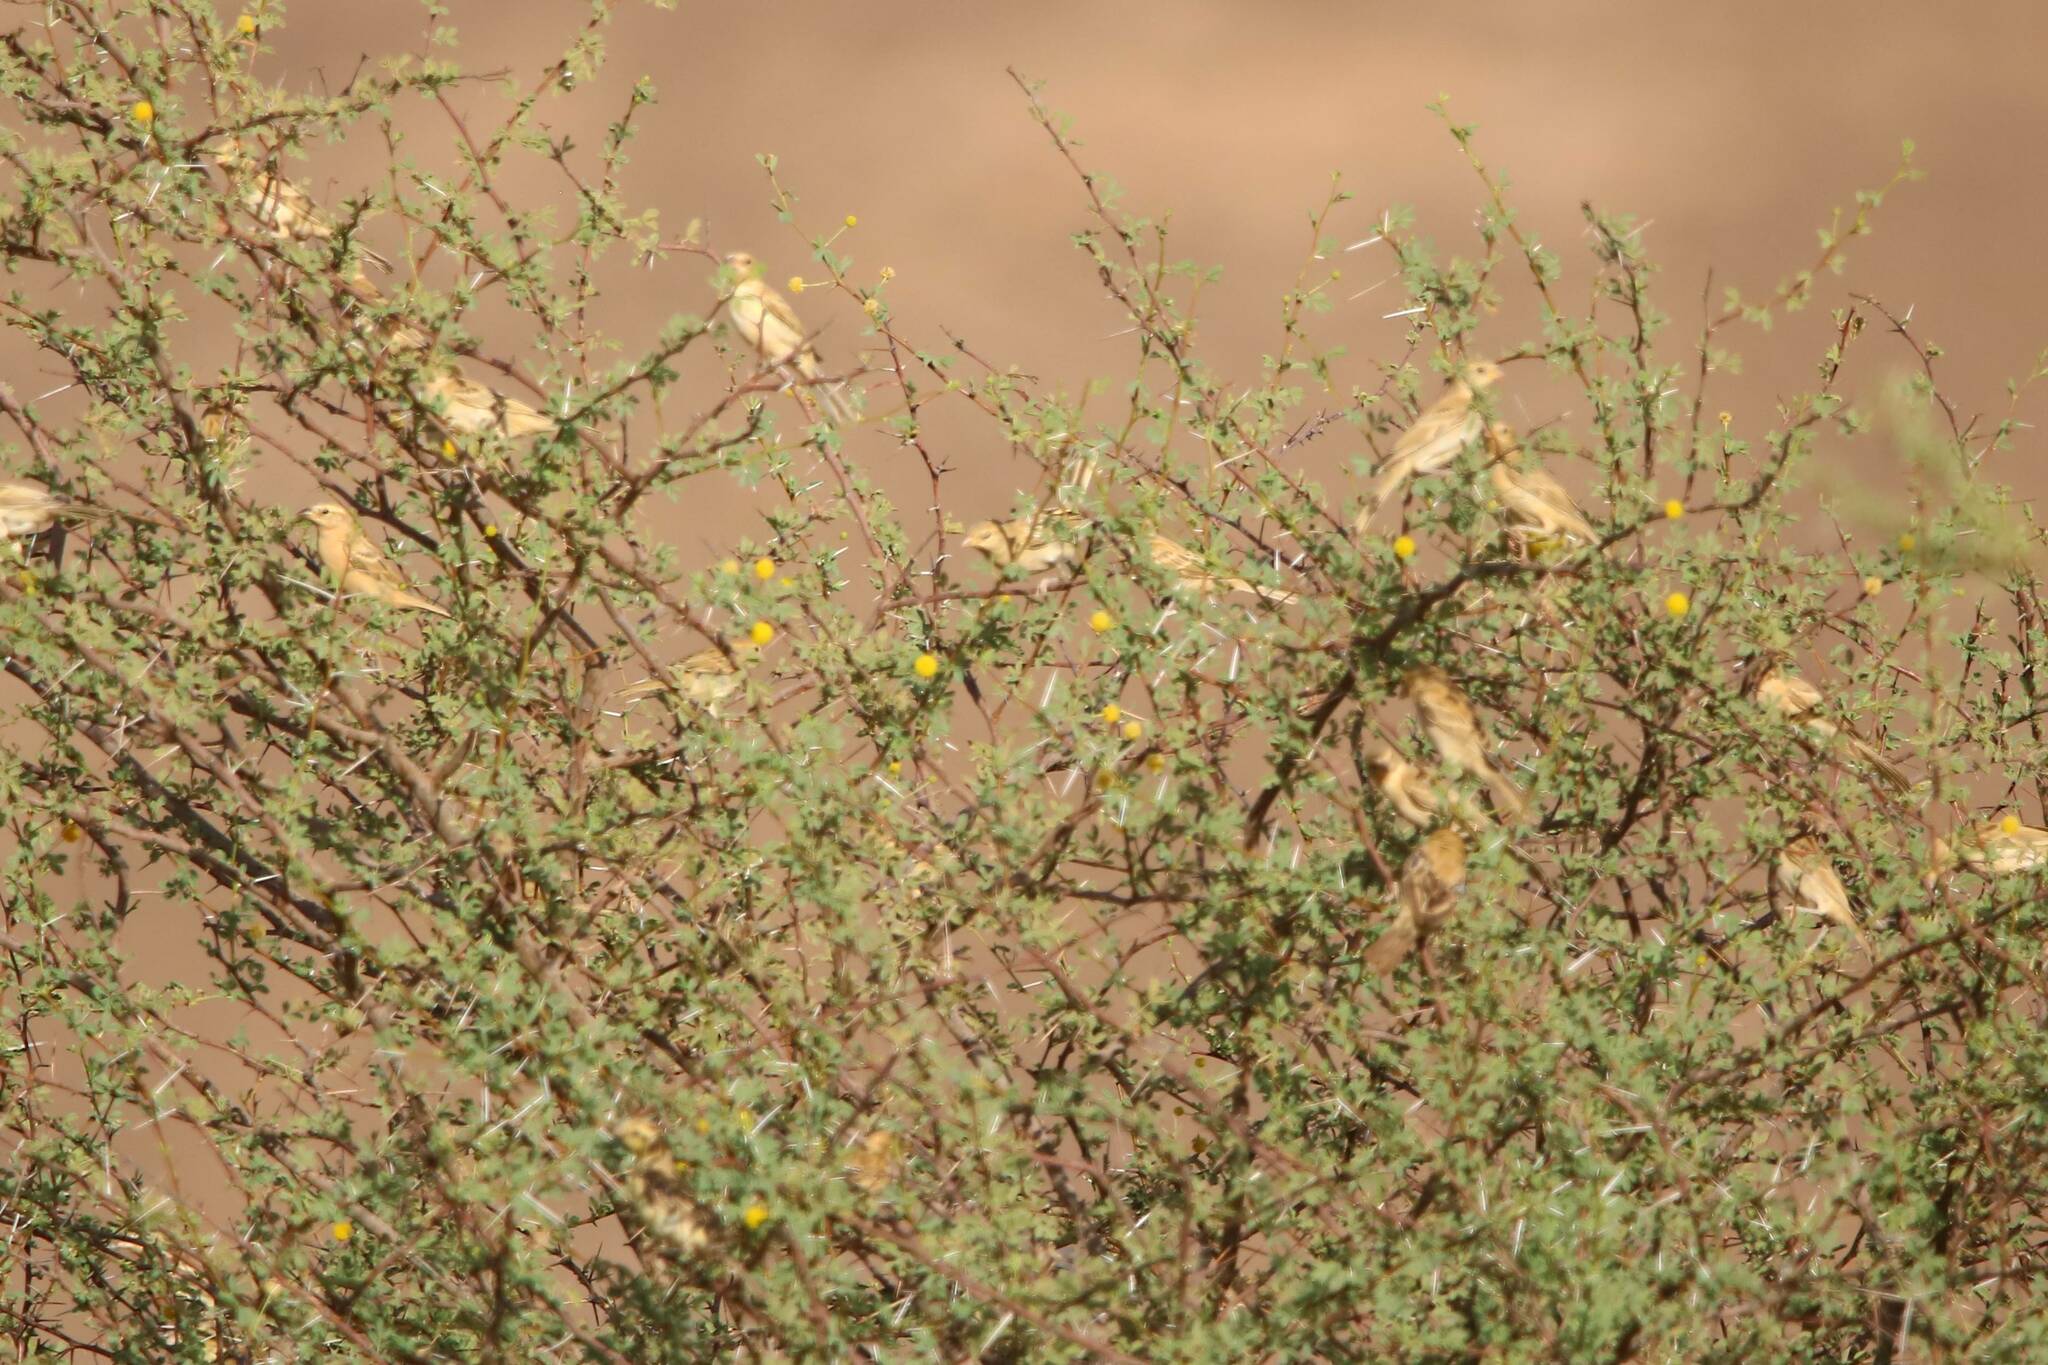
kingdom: Animalia
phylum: Chordata
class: Aves
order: Passeriformes
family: Passeridae
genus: Passer
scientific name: Passer luteus
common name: Sudan golden sparrow
